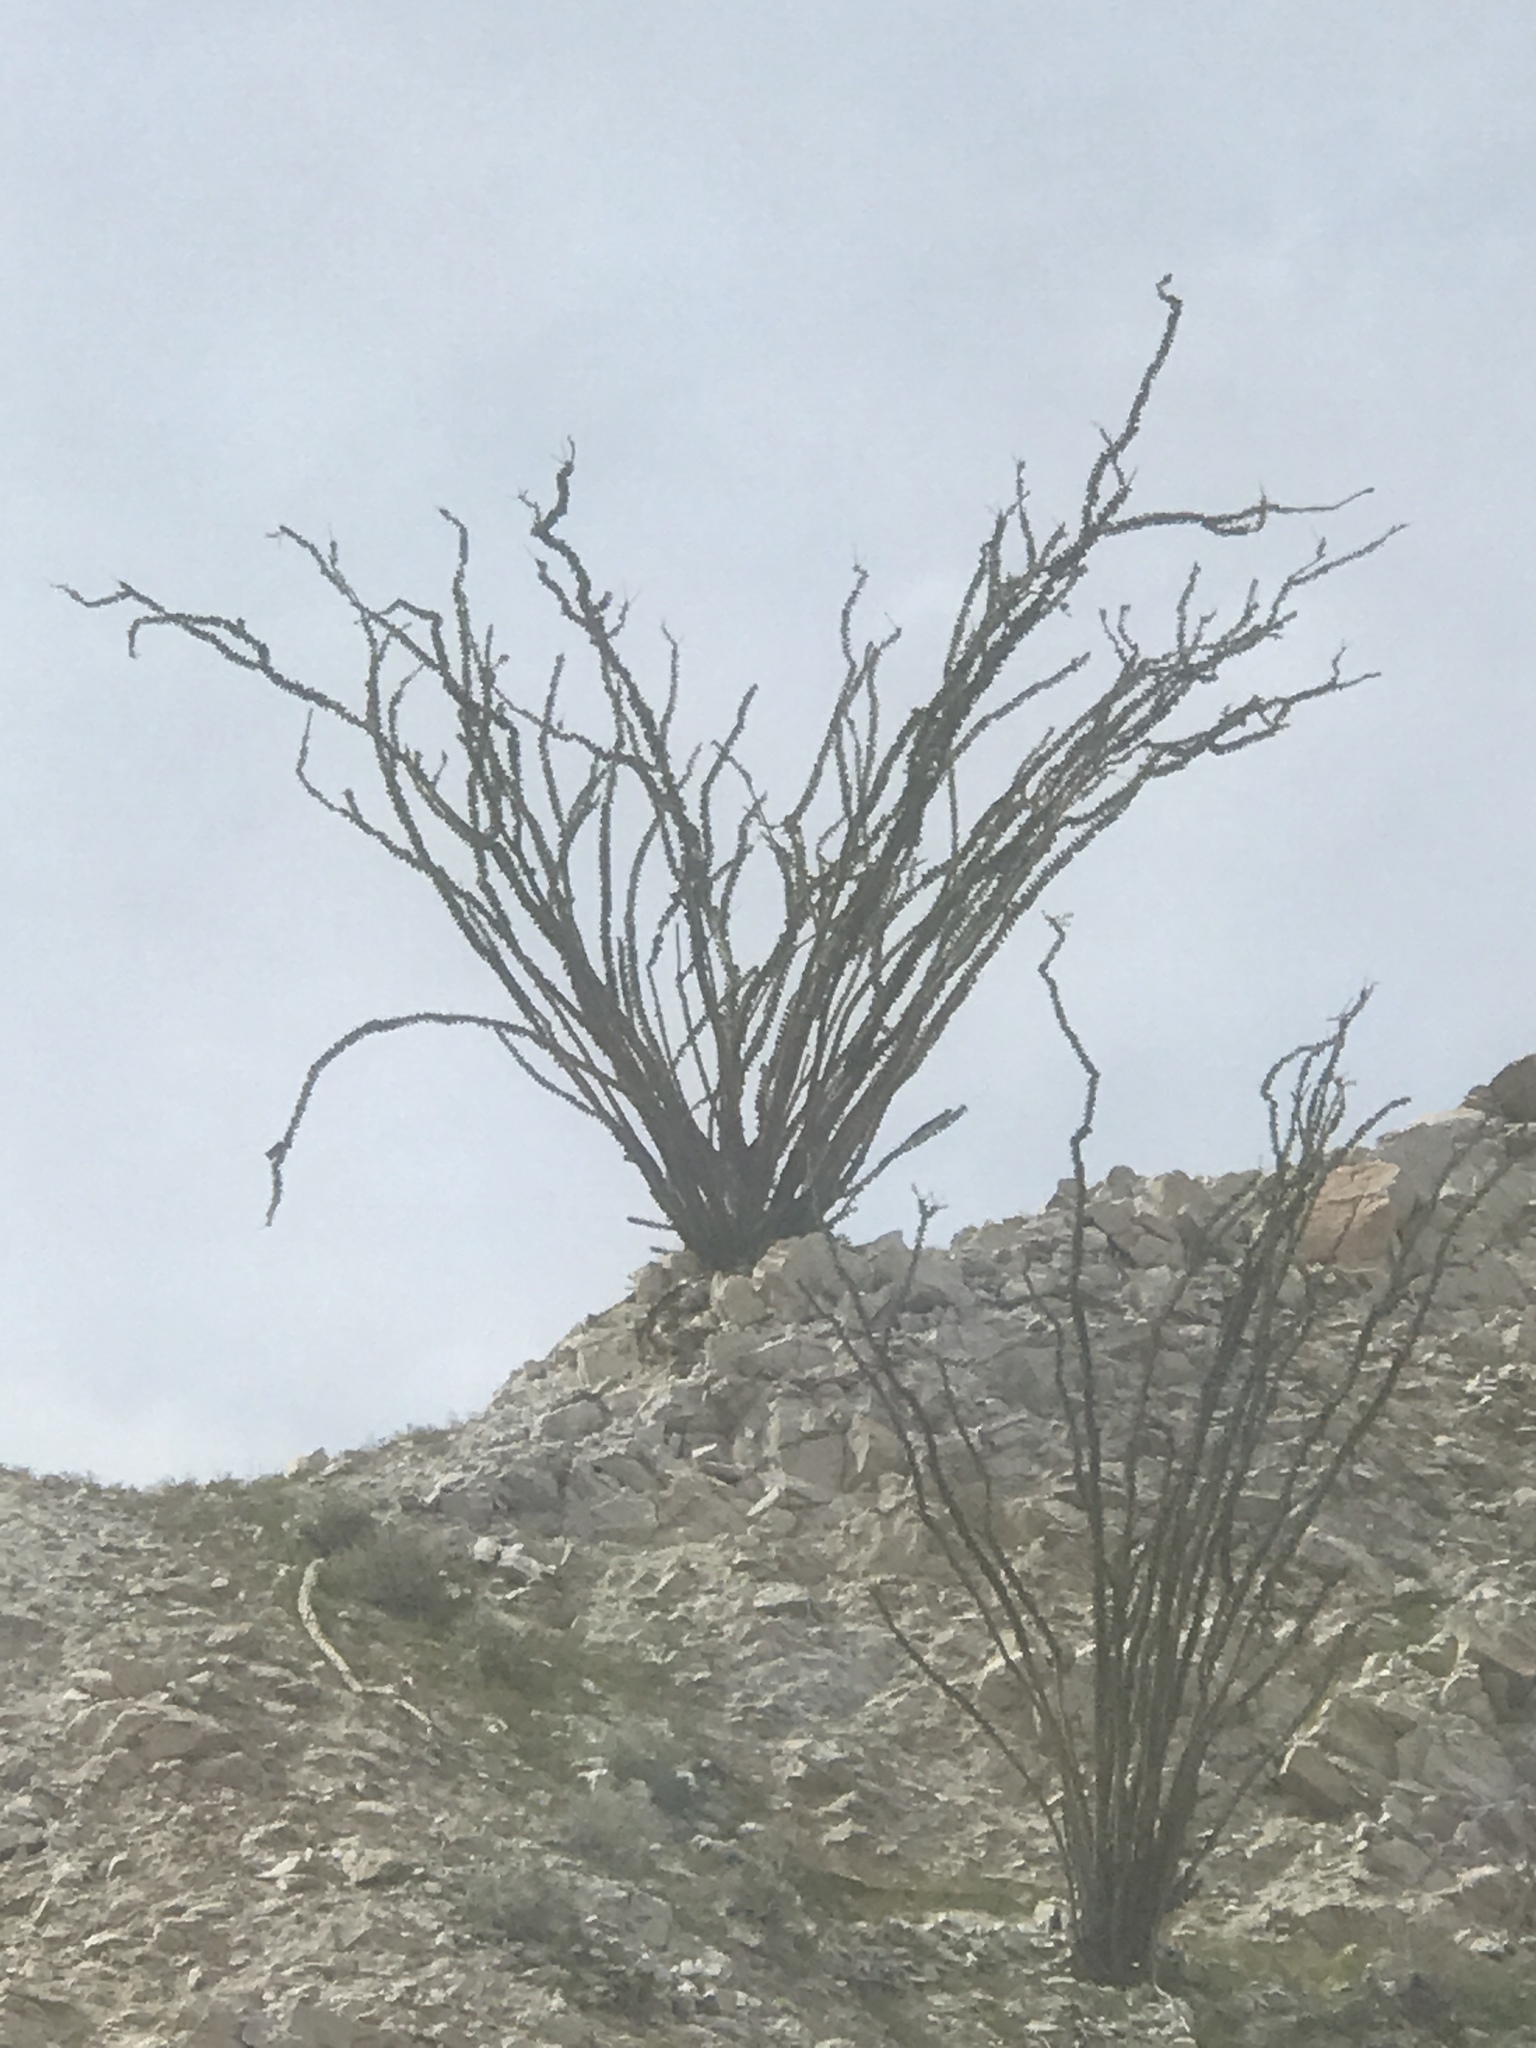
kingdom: Plantae
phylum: Tracheophyta
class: Magnoliopsida
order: Ericales
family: Fouquieriaceae
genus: Fouquieria
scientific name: Fouquieria splendens
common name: Vine-cactus
